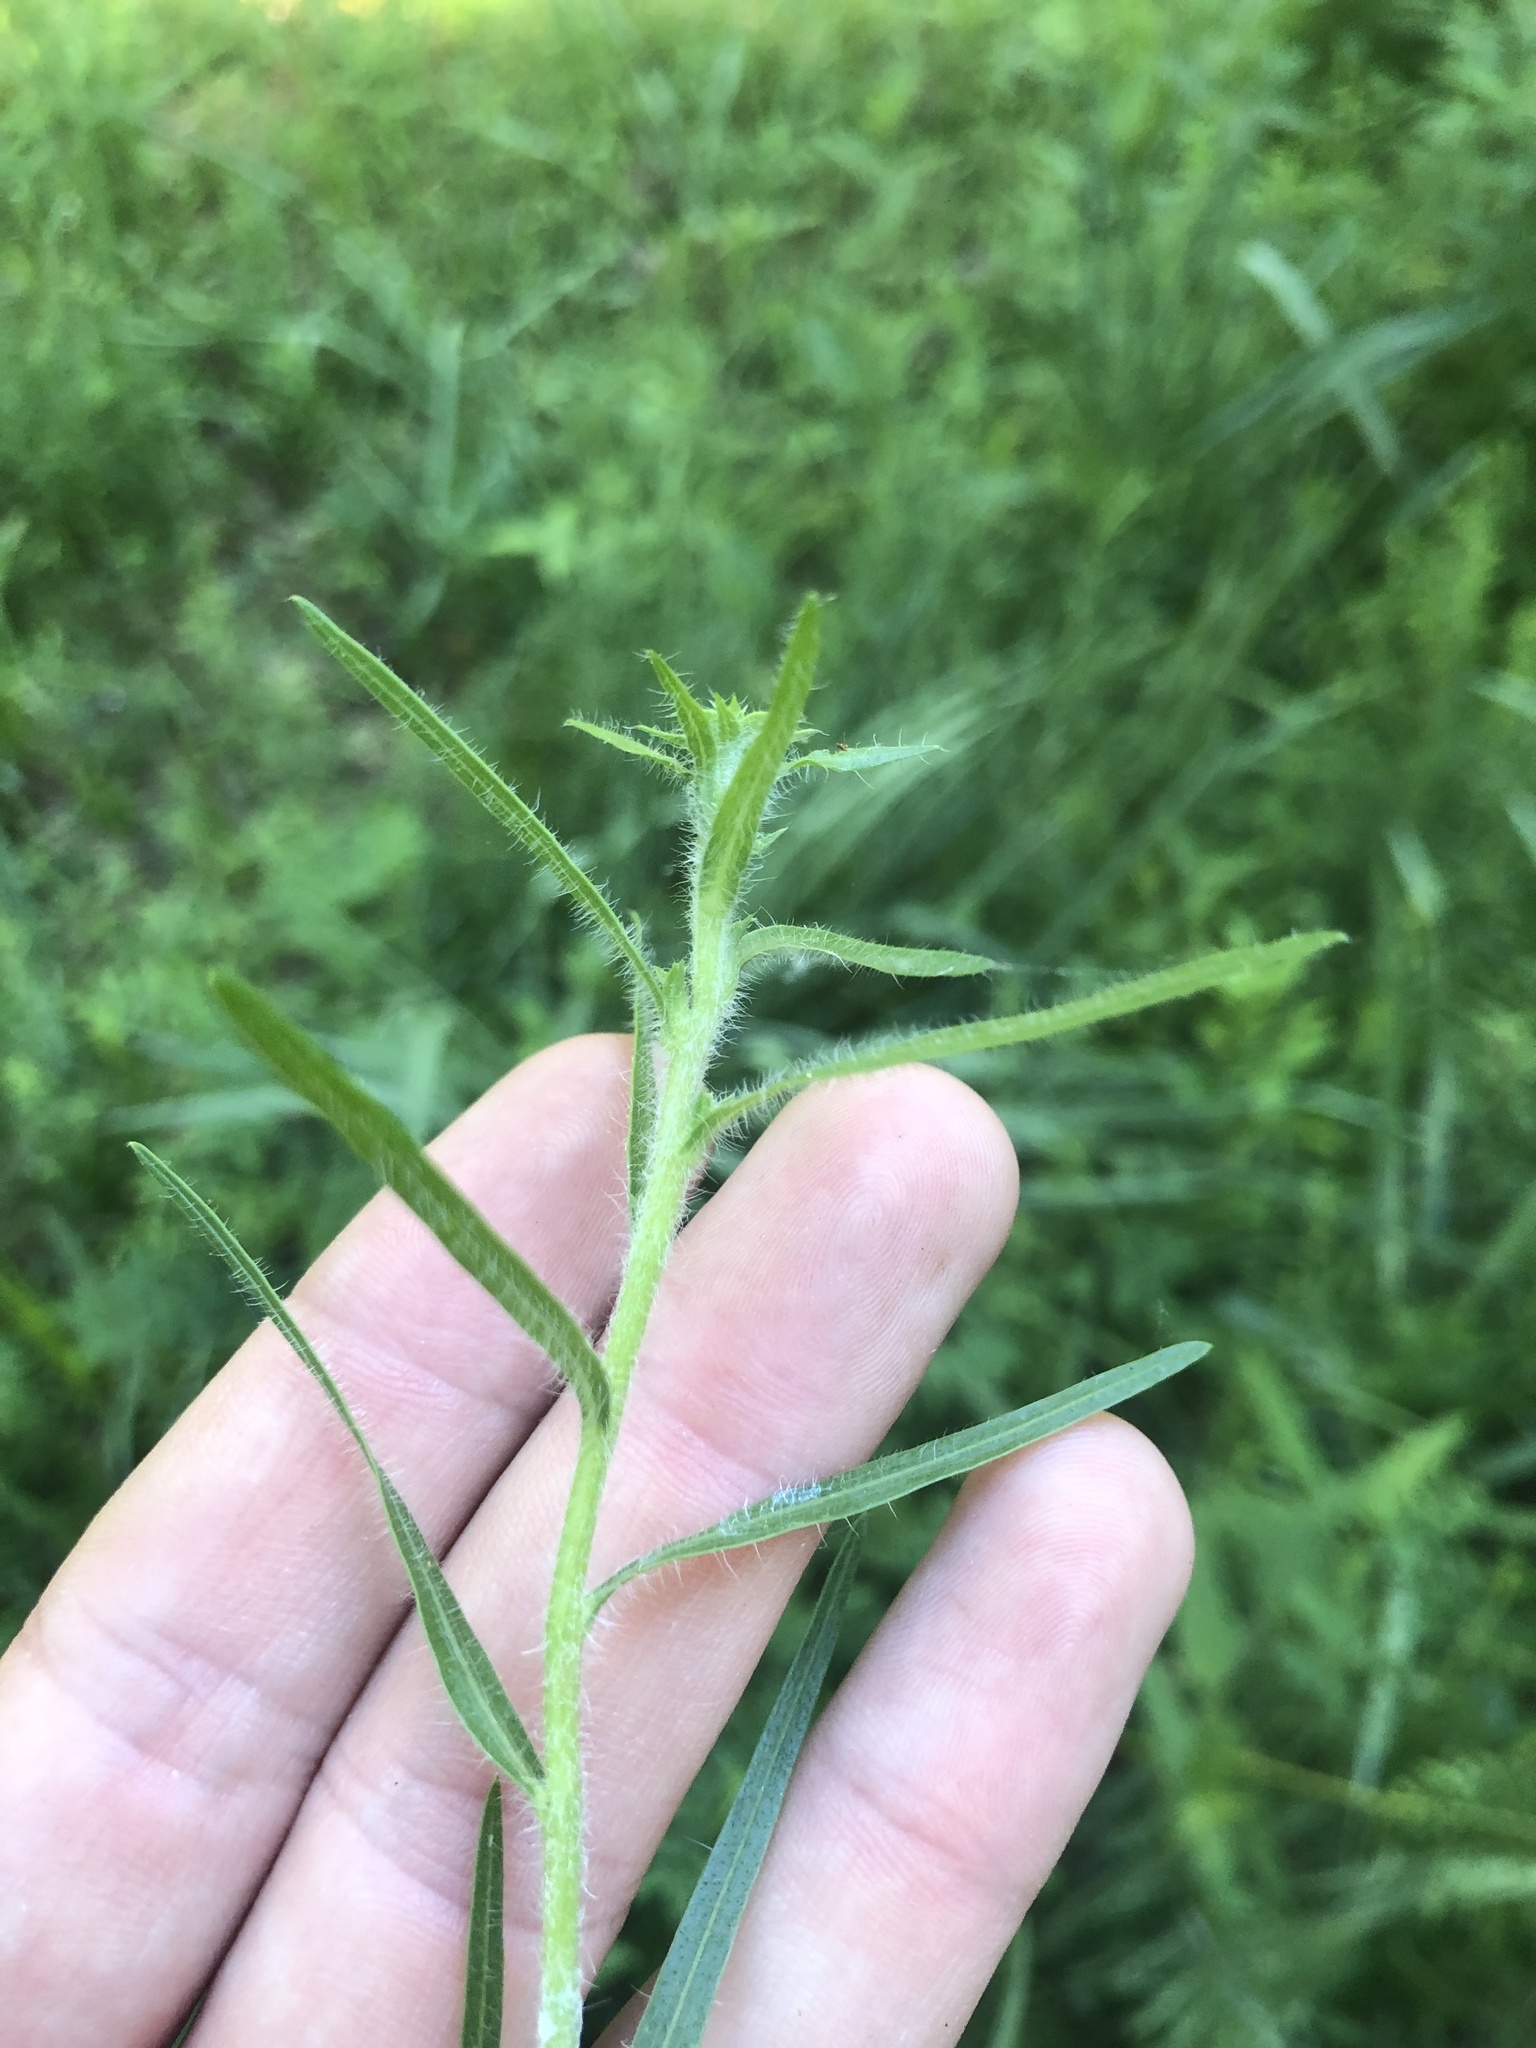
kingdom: Plantae
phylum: Tracheophyta
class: Magnoliopsida
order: Asterales
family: Asteraceae
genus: Liatris
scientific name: Liatris squarrosa
